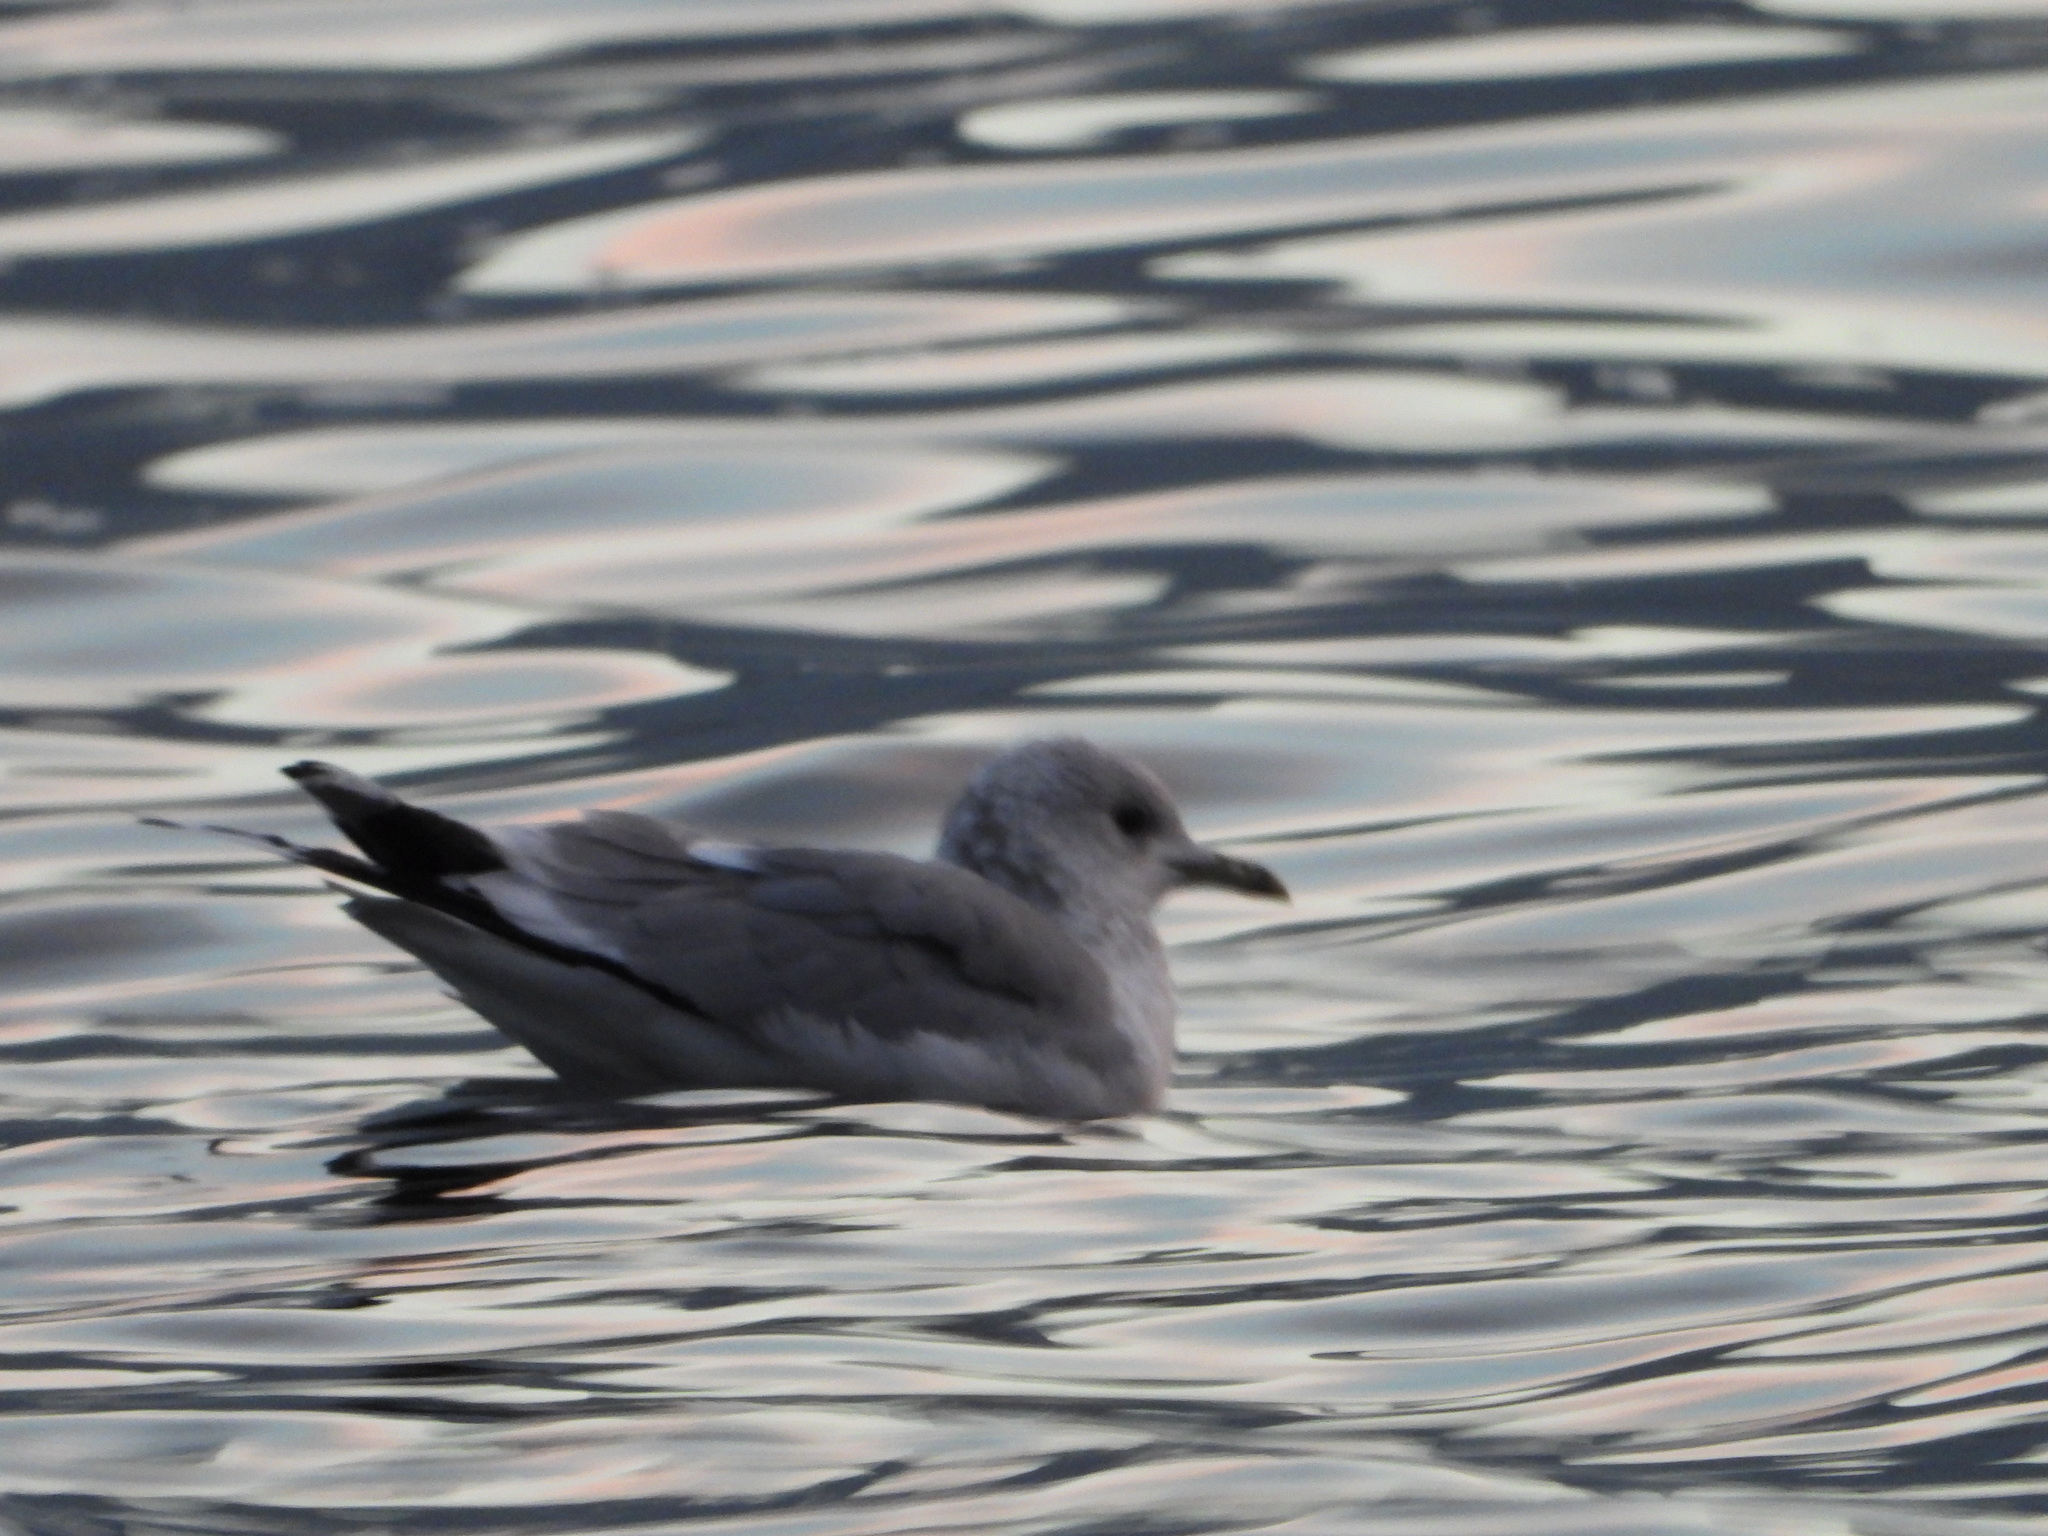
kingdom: Animalia
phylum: Chordata
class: Aves
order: Charadriiformes
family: Laridae
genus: Larus
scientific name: Larus canus
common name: Mew gull
